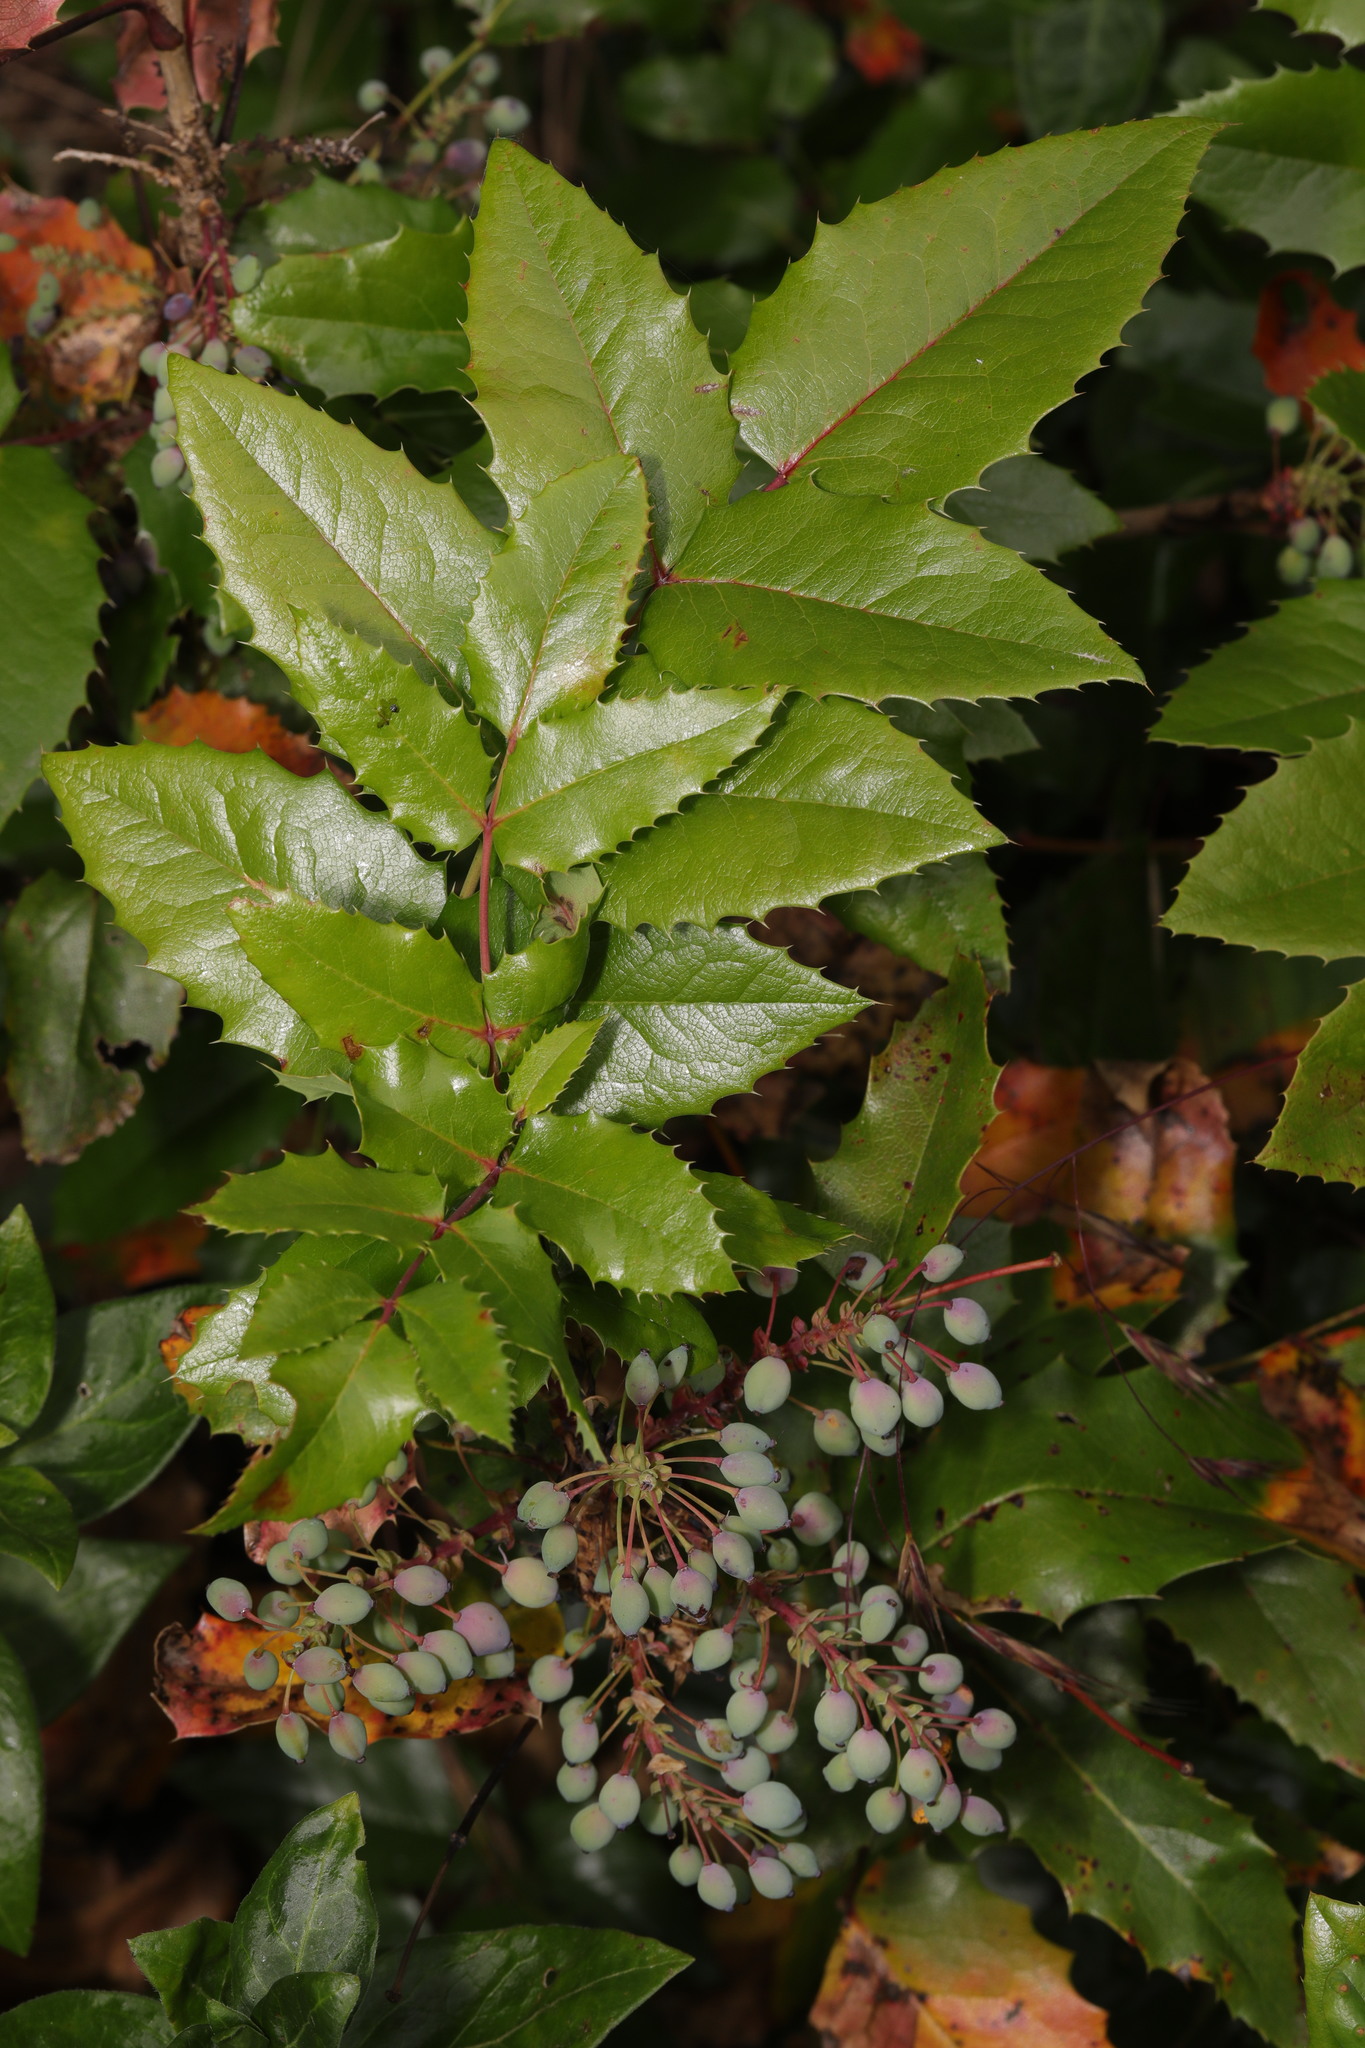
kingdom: Plantae
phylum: Tracheophyta
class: Magnoliopsida
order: Ranunculales
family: Berberidaceae
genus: Mahonia
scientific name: Mahonia aquifolium
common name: Oregon-grape
